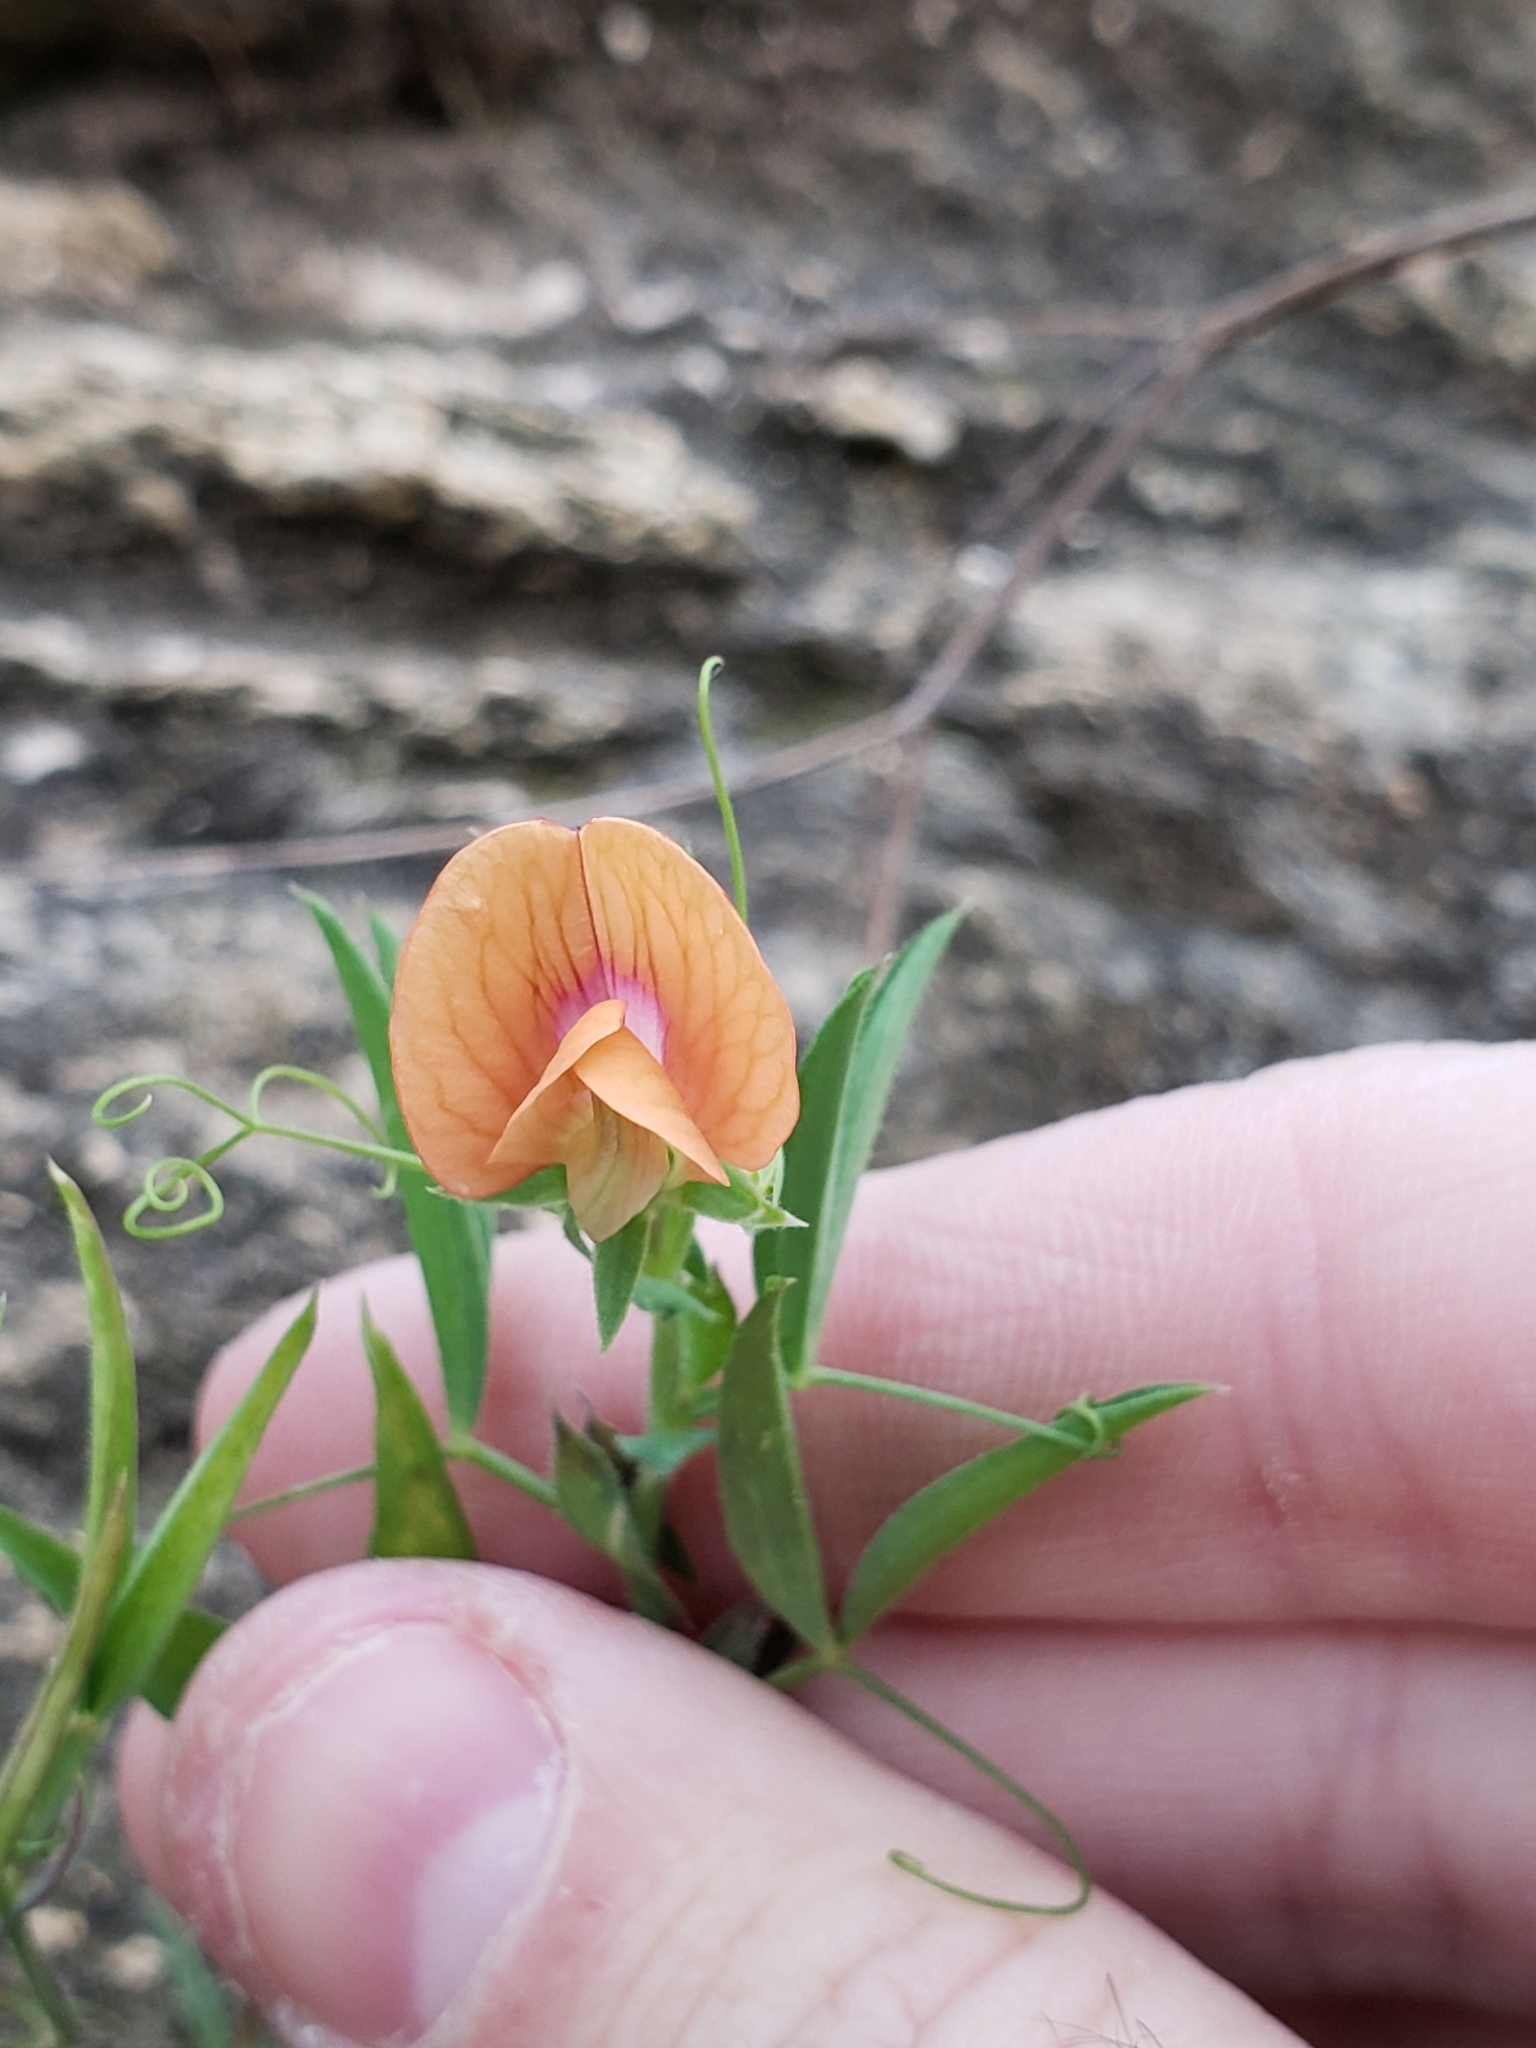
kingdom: Plantae
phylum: Tracheophyta
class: Magnoliopsida
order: Fabales
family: Fabaceae
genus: Lathyrus
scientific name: Lathyrus blepharicarpos
